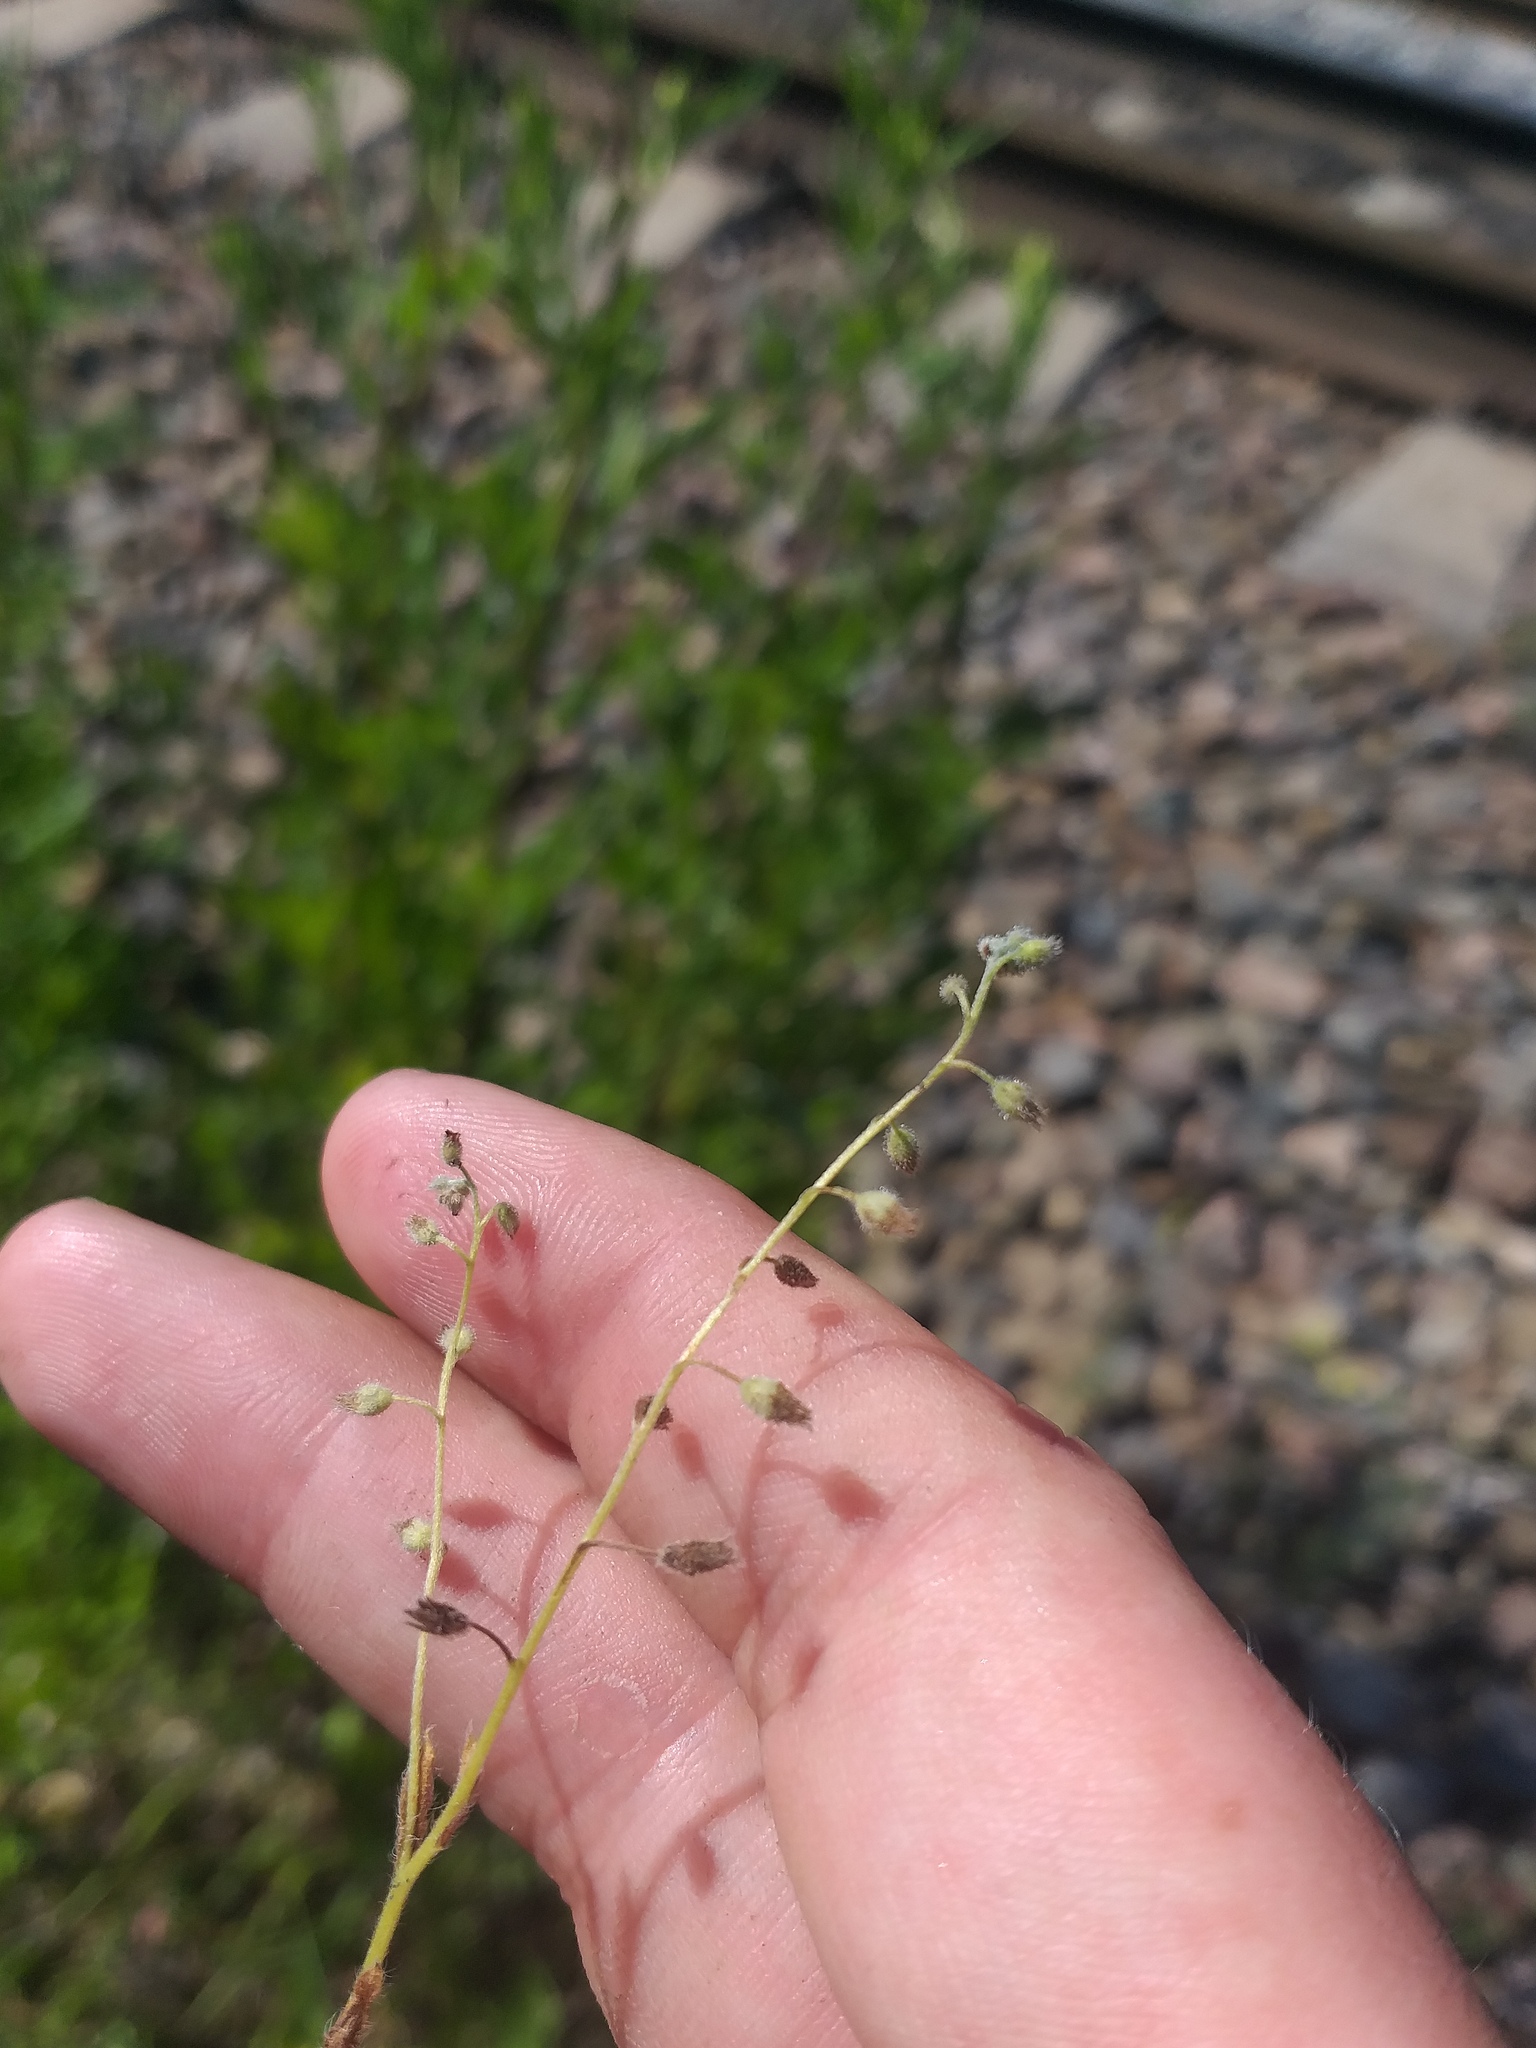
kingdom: Plantae
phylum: Tracheophyta
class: Magnoliopsida
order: Boraginales
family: Boraginaceae
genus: Myosotis
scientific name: Myosotis arvensis
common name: Field forget-me-not
